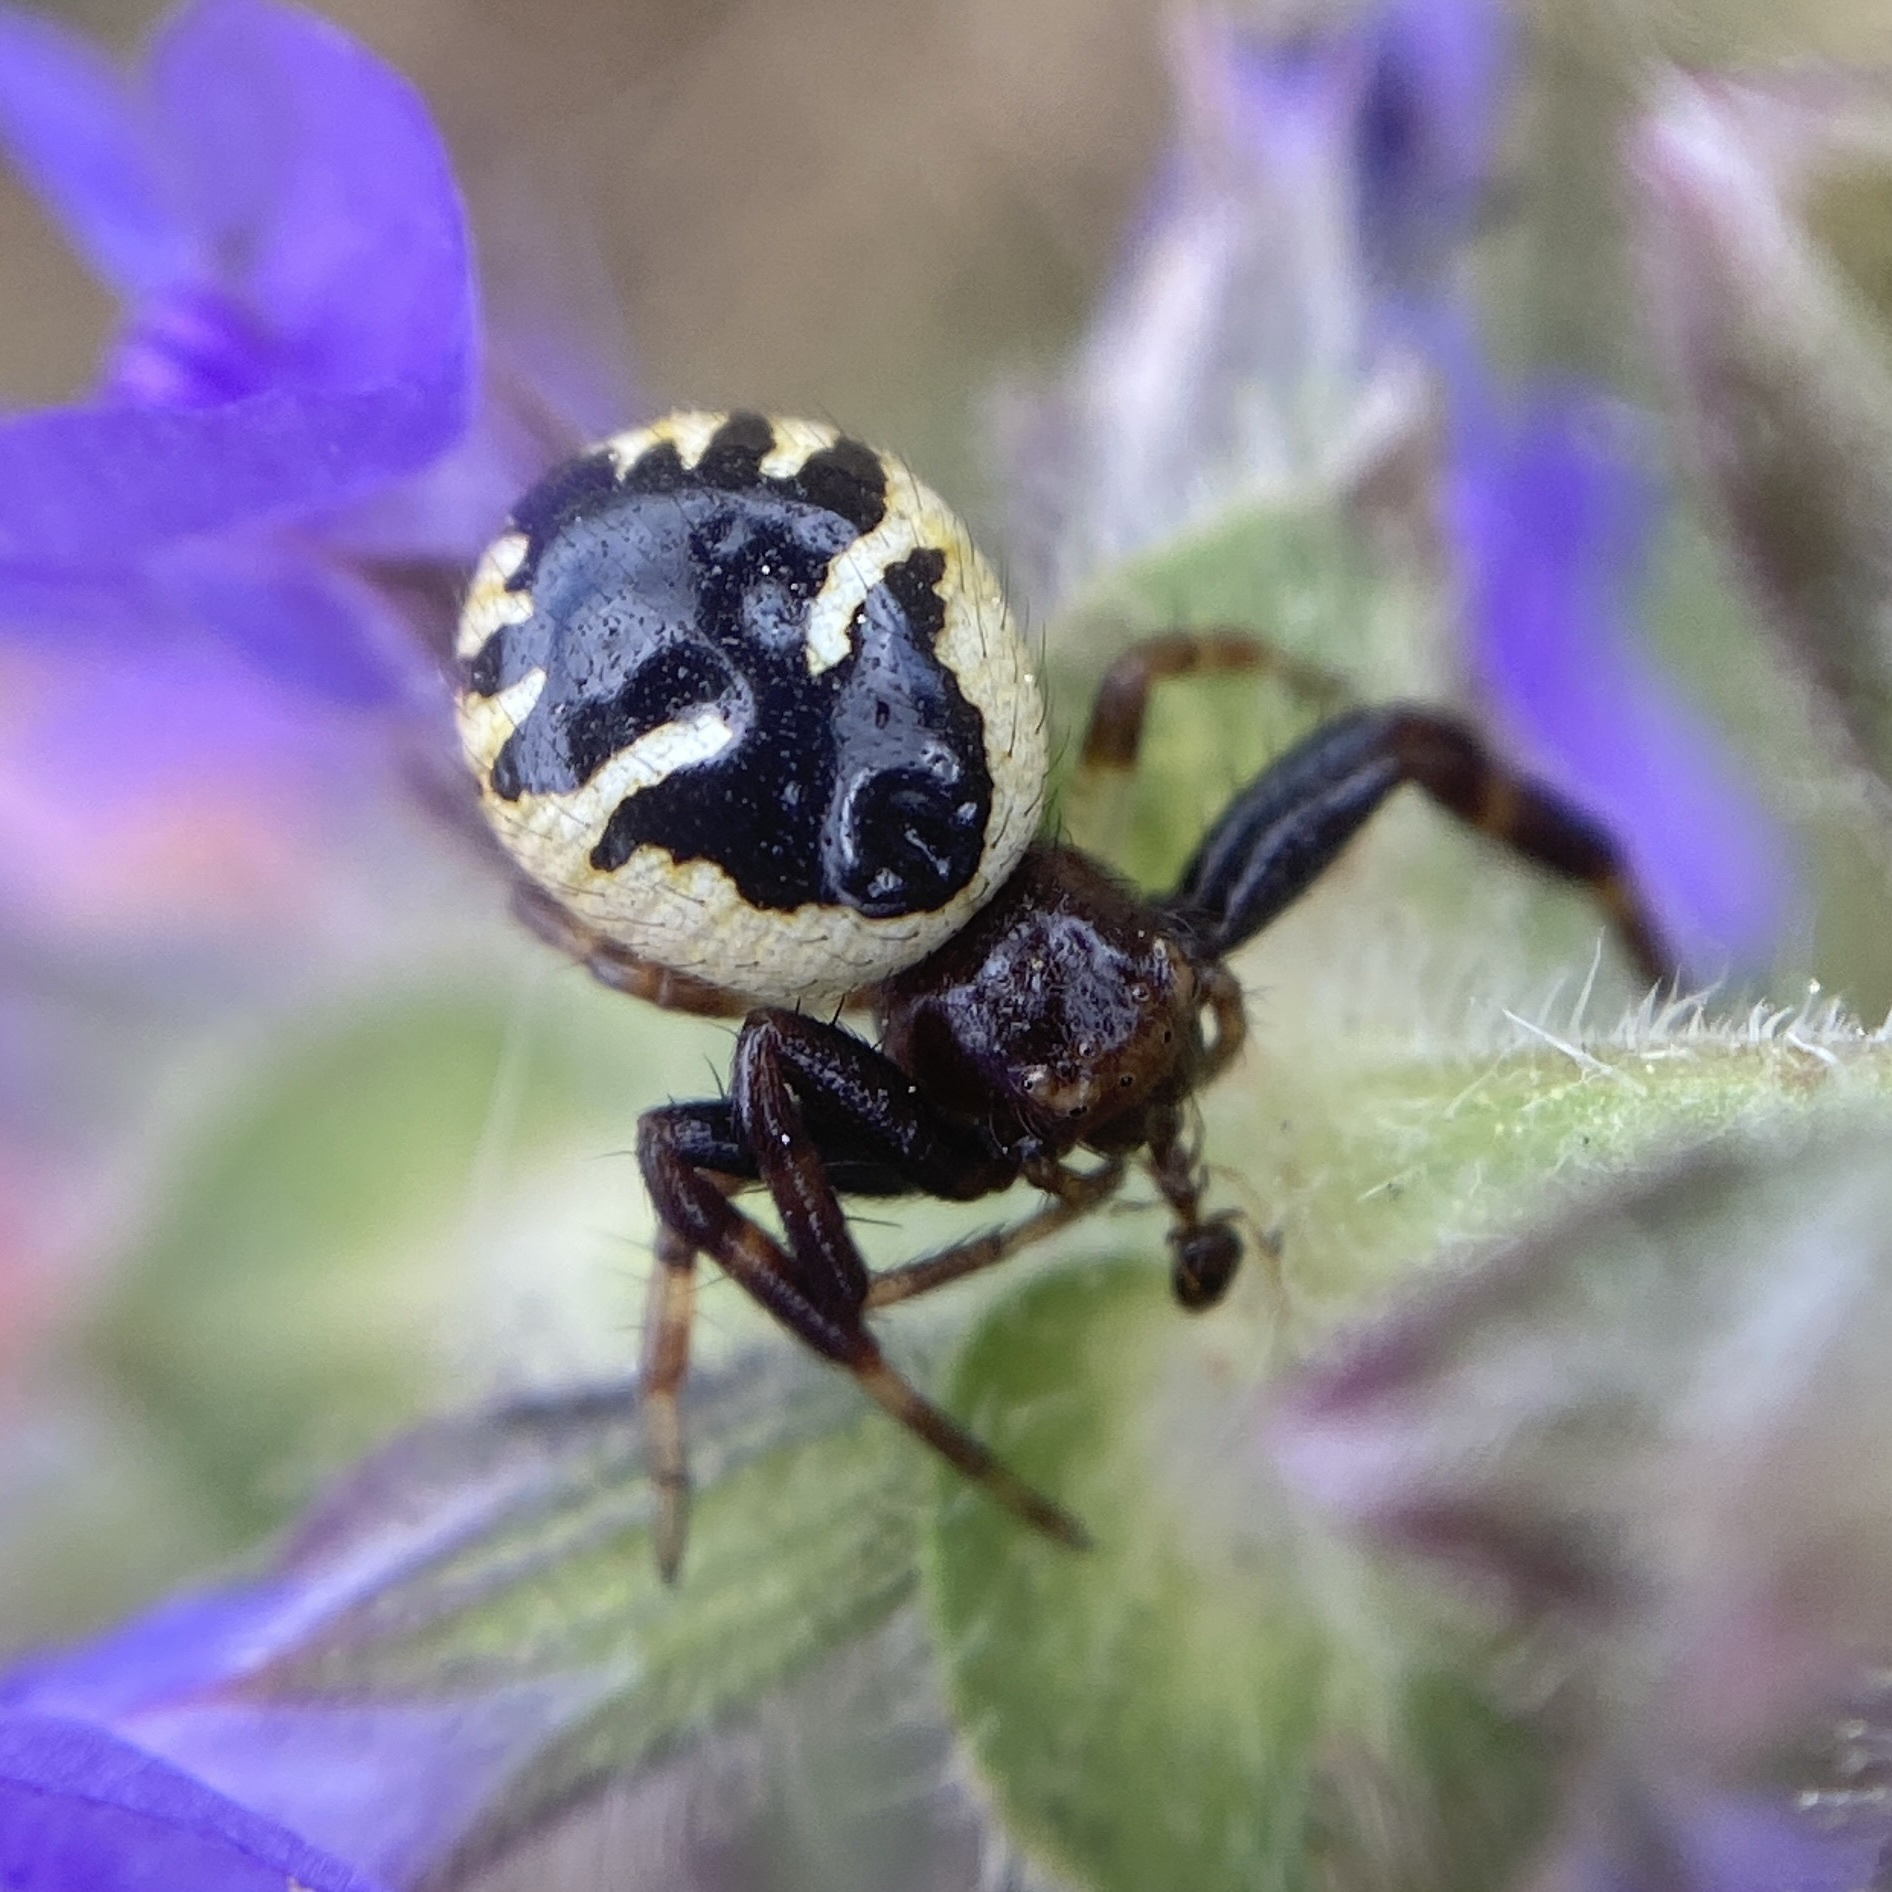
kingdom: Animalia
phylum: Arthropoda
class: Arachnida
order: Araneae
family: Thomisidae
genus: Synema
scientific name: Synema globosum
